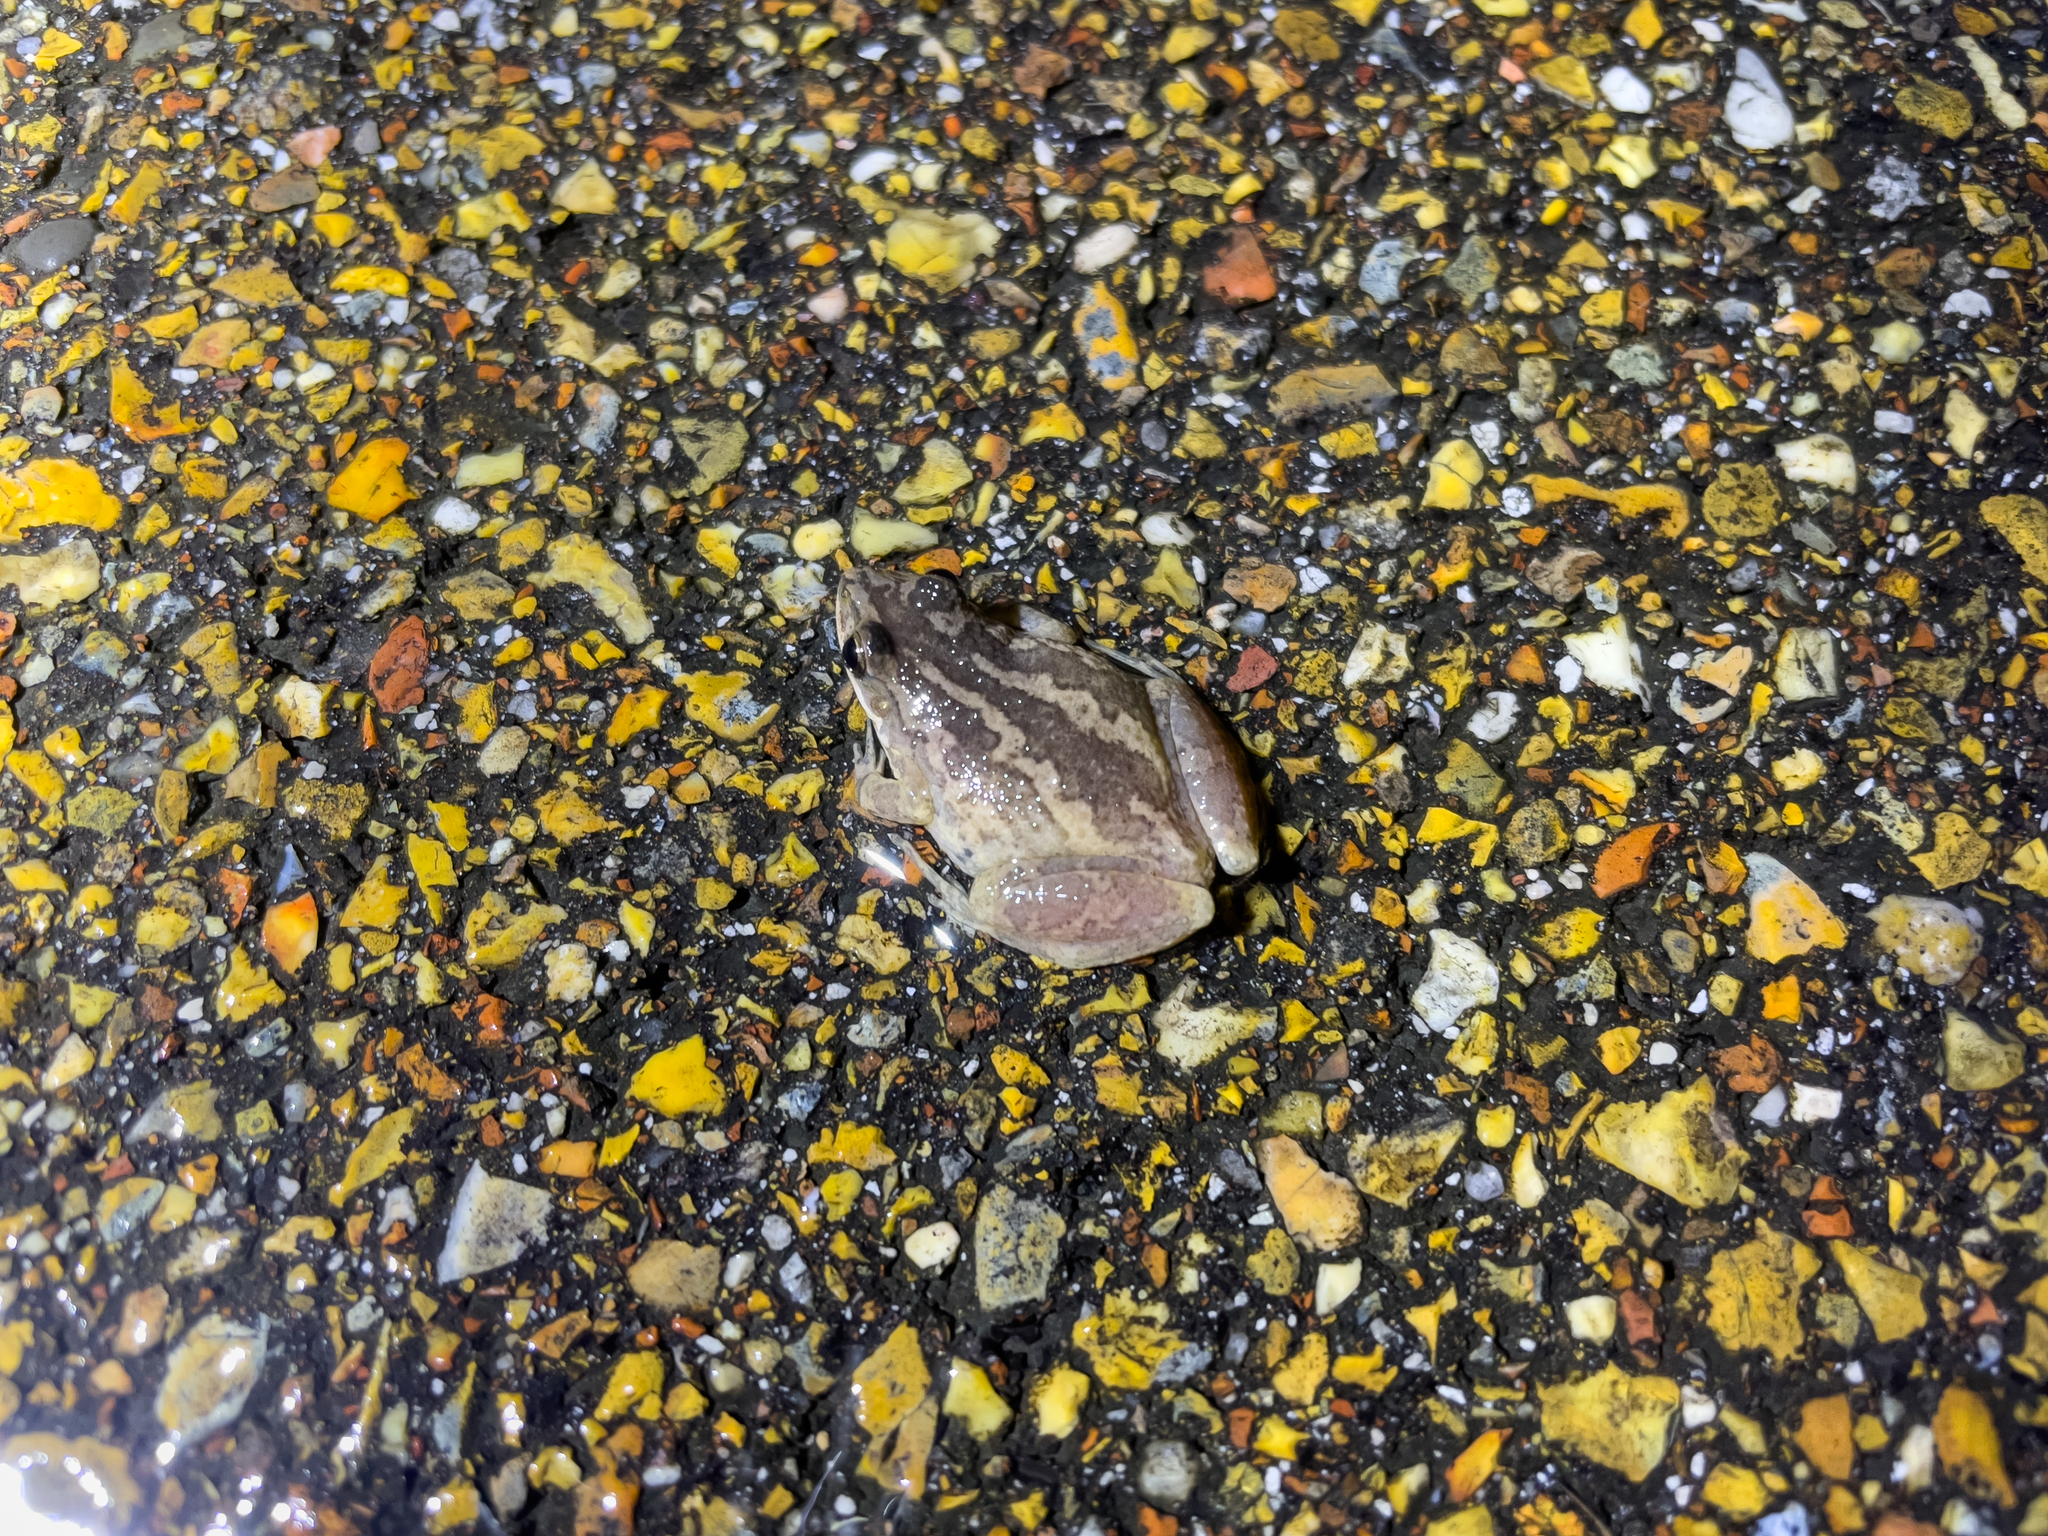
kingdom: Animalia
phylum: Chordata
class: Amphibia
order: Anura
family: Hylidae
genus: Pseudacris
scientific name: Pseudacris fouquettei
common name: Cajun chorus frog
